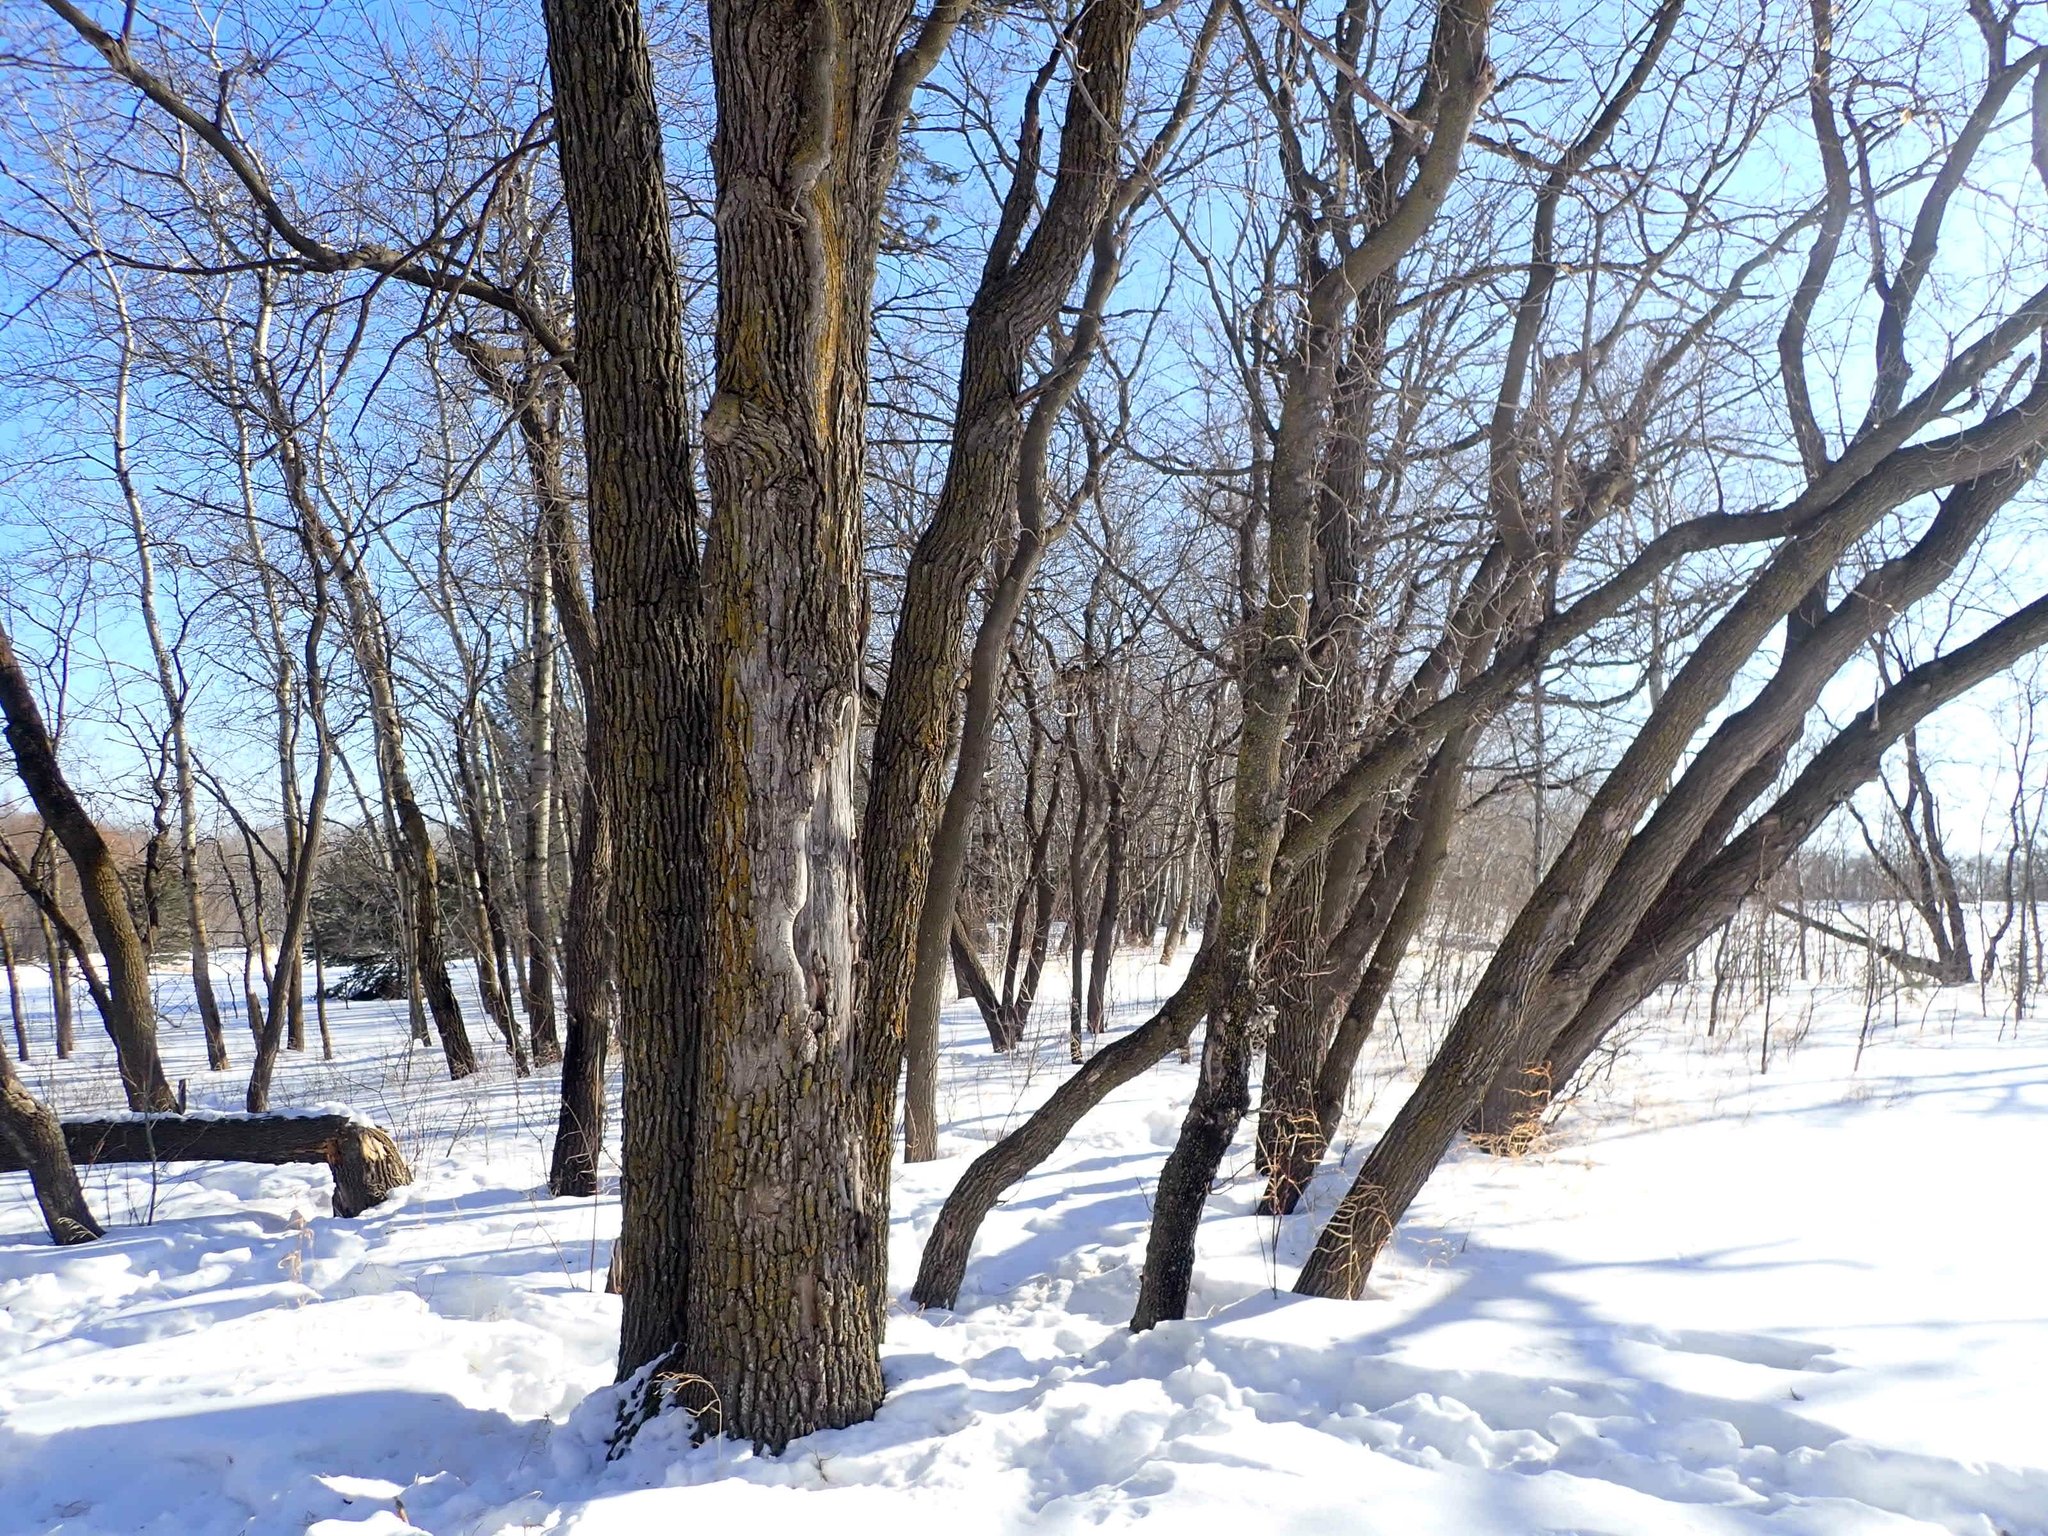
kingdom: Plantae
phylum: Tracheophyta
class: Magnoliopsida
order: Sapindales
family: Sapindaceae
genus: Acer
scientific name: Acer negundo
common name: Ashleaf maple
